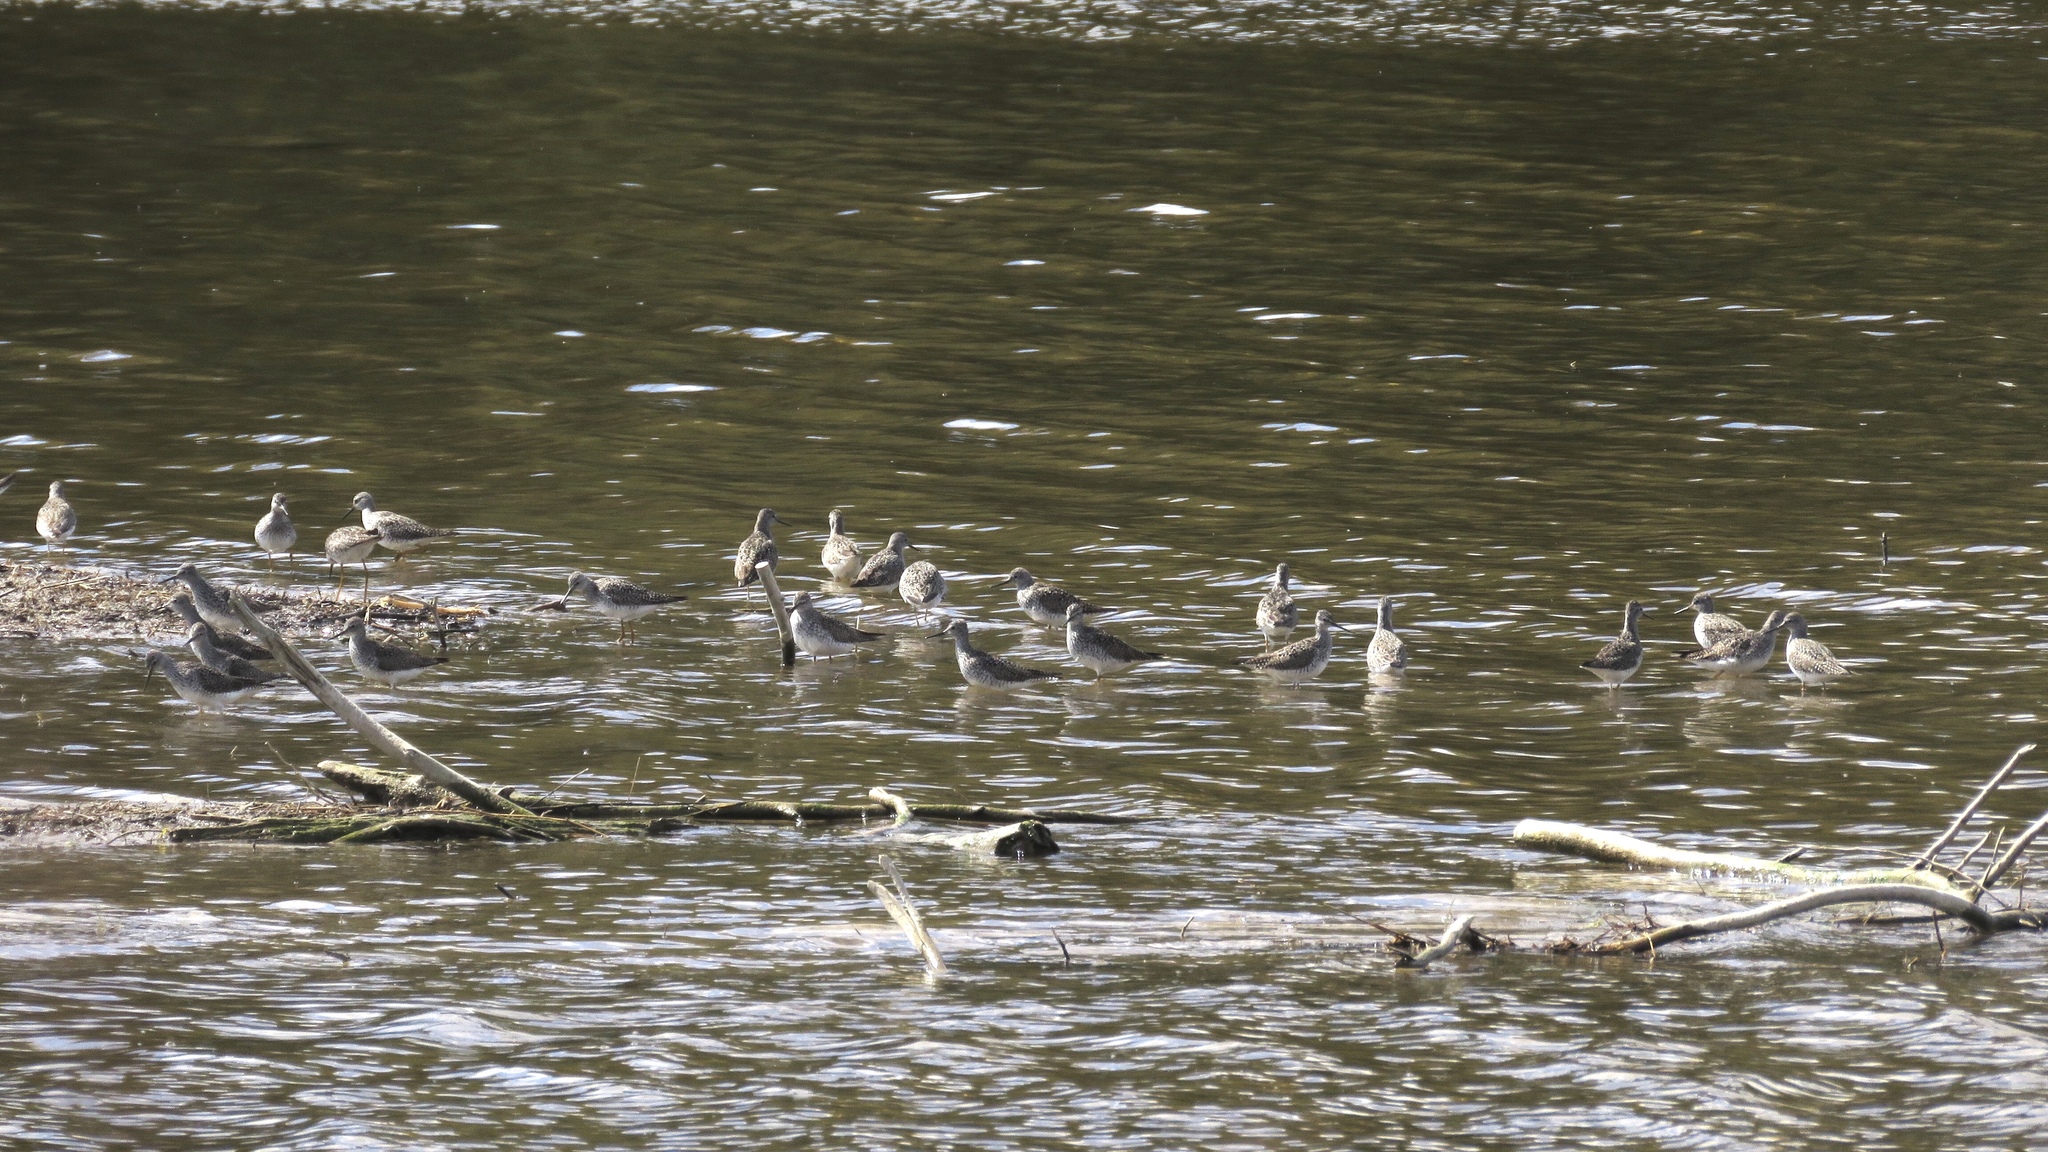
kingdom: Animalia
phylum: Chordata
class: Aves
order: Charadriiformes
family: Scolopacidae
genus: Tringa
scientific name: Tringa flavipes
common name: Lesser yellowlegs
